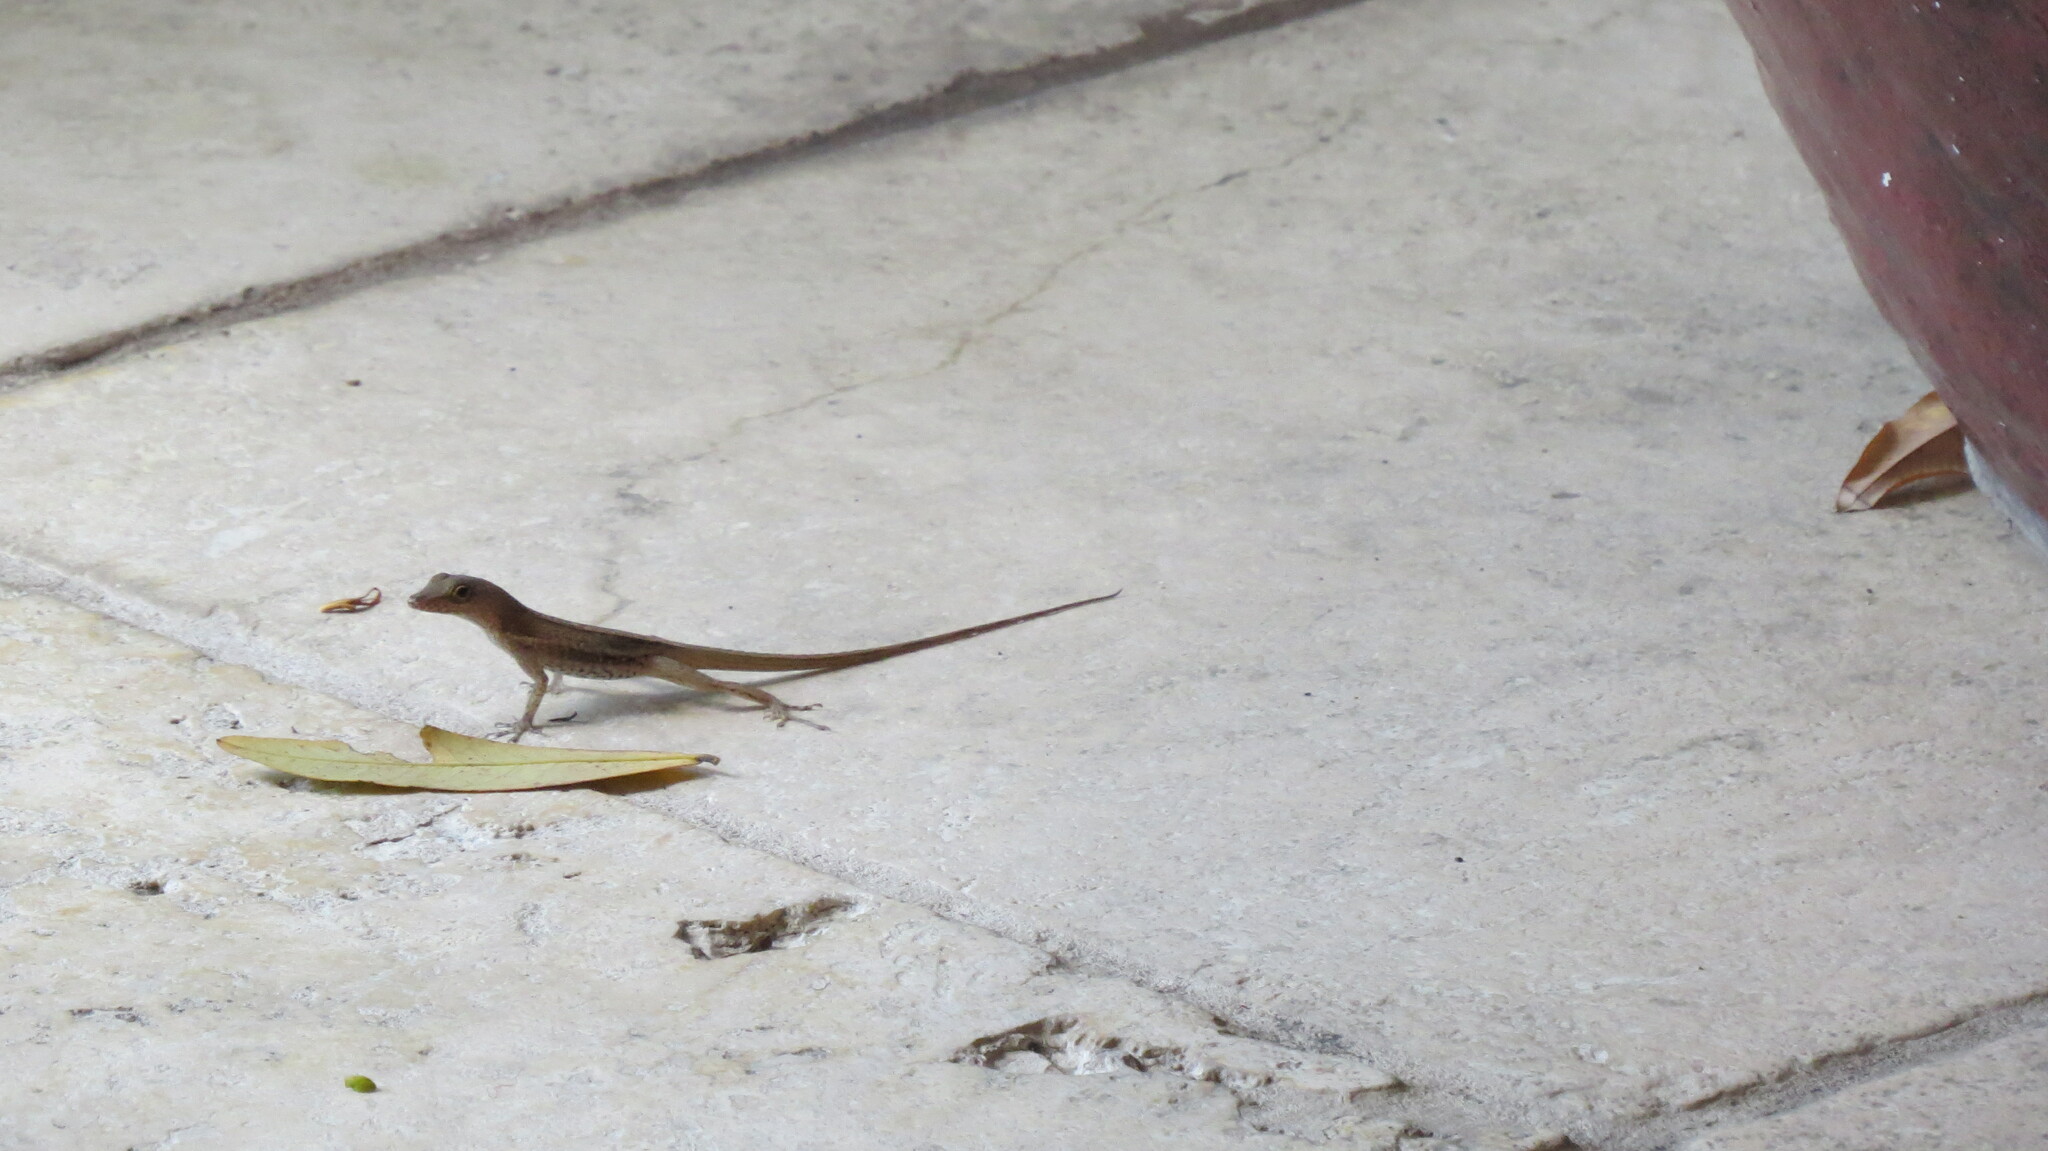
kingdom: Animalia
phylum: Chordata
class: Squamata
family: Dactyloidae
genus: Anolis
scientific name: Anolis acutus
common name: Saint croix's anole
